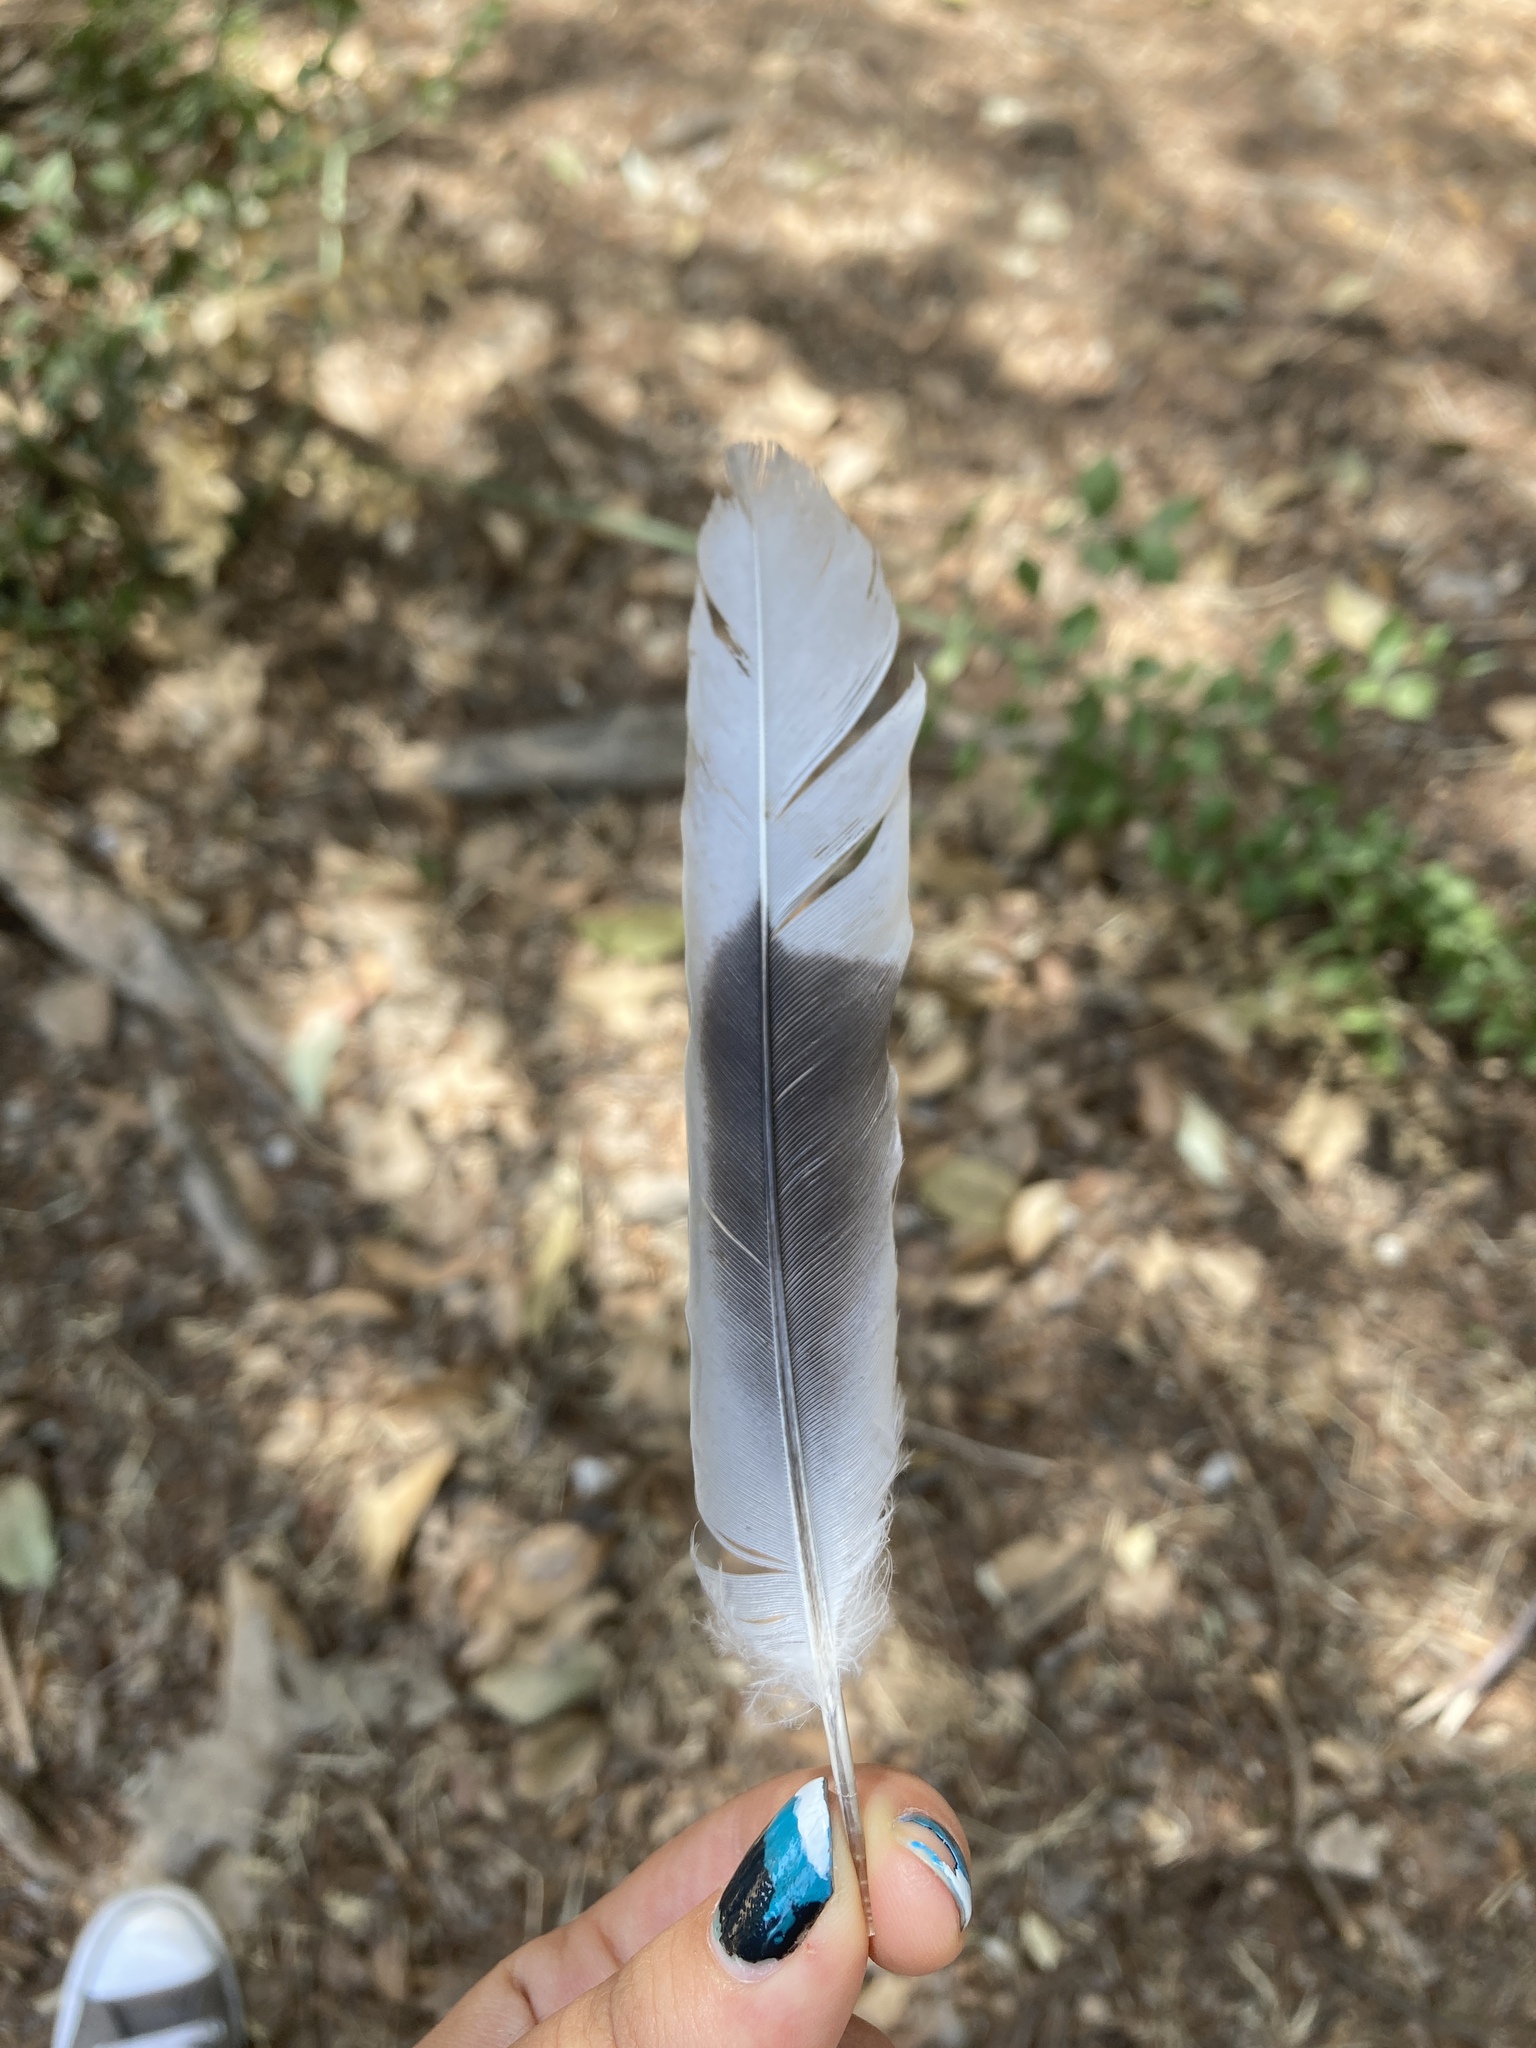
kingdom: Animalia
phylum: Chordata
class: Aves
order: Columbiformes
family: Columbidae
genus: Streptopelia
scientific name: Streptopelia decaocto
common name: Eurasian collared dove
